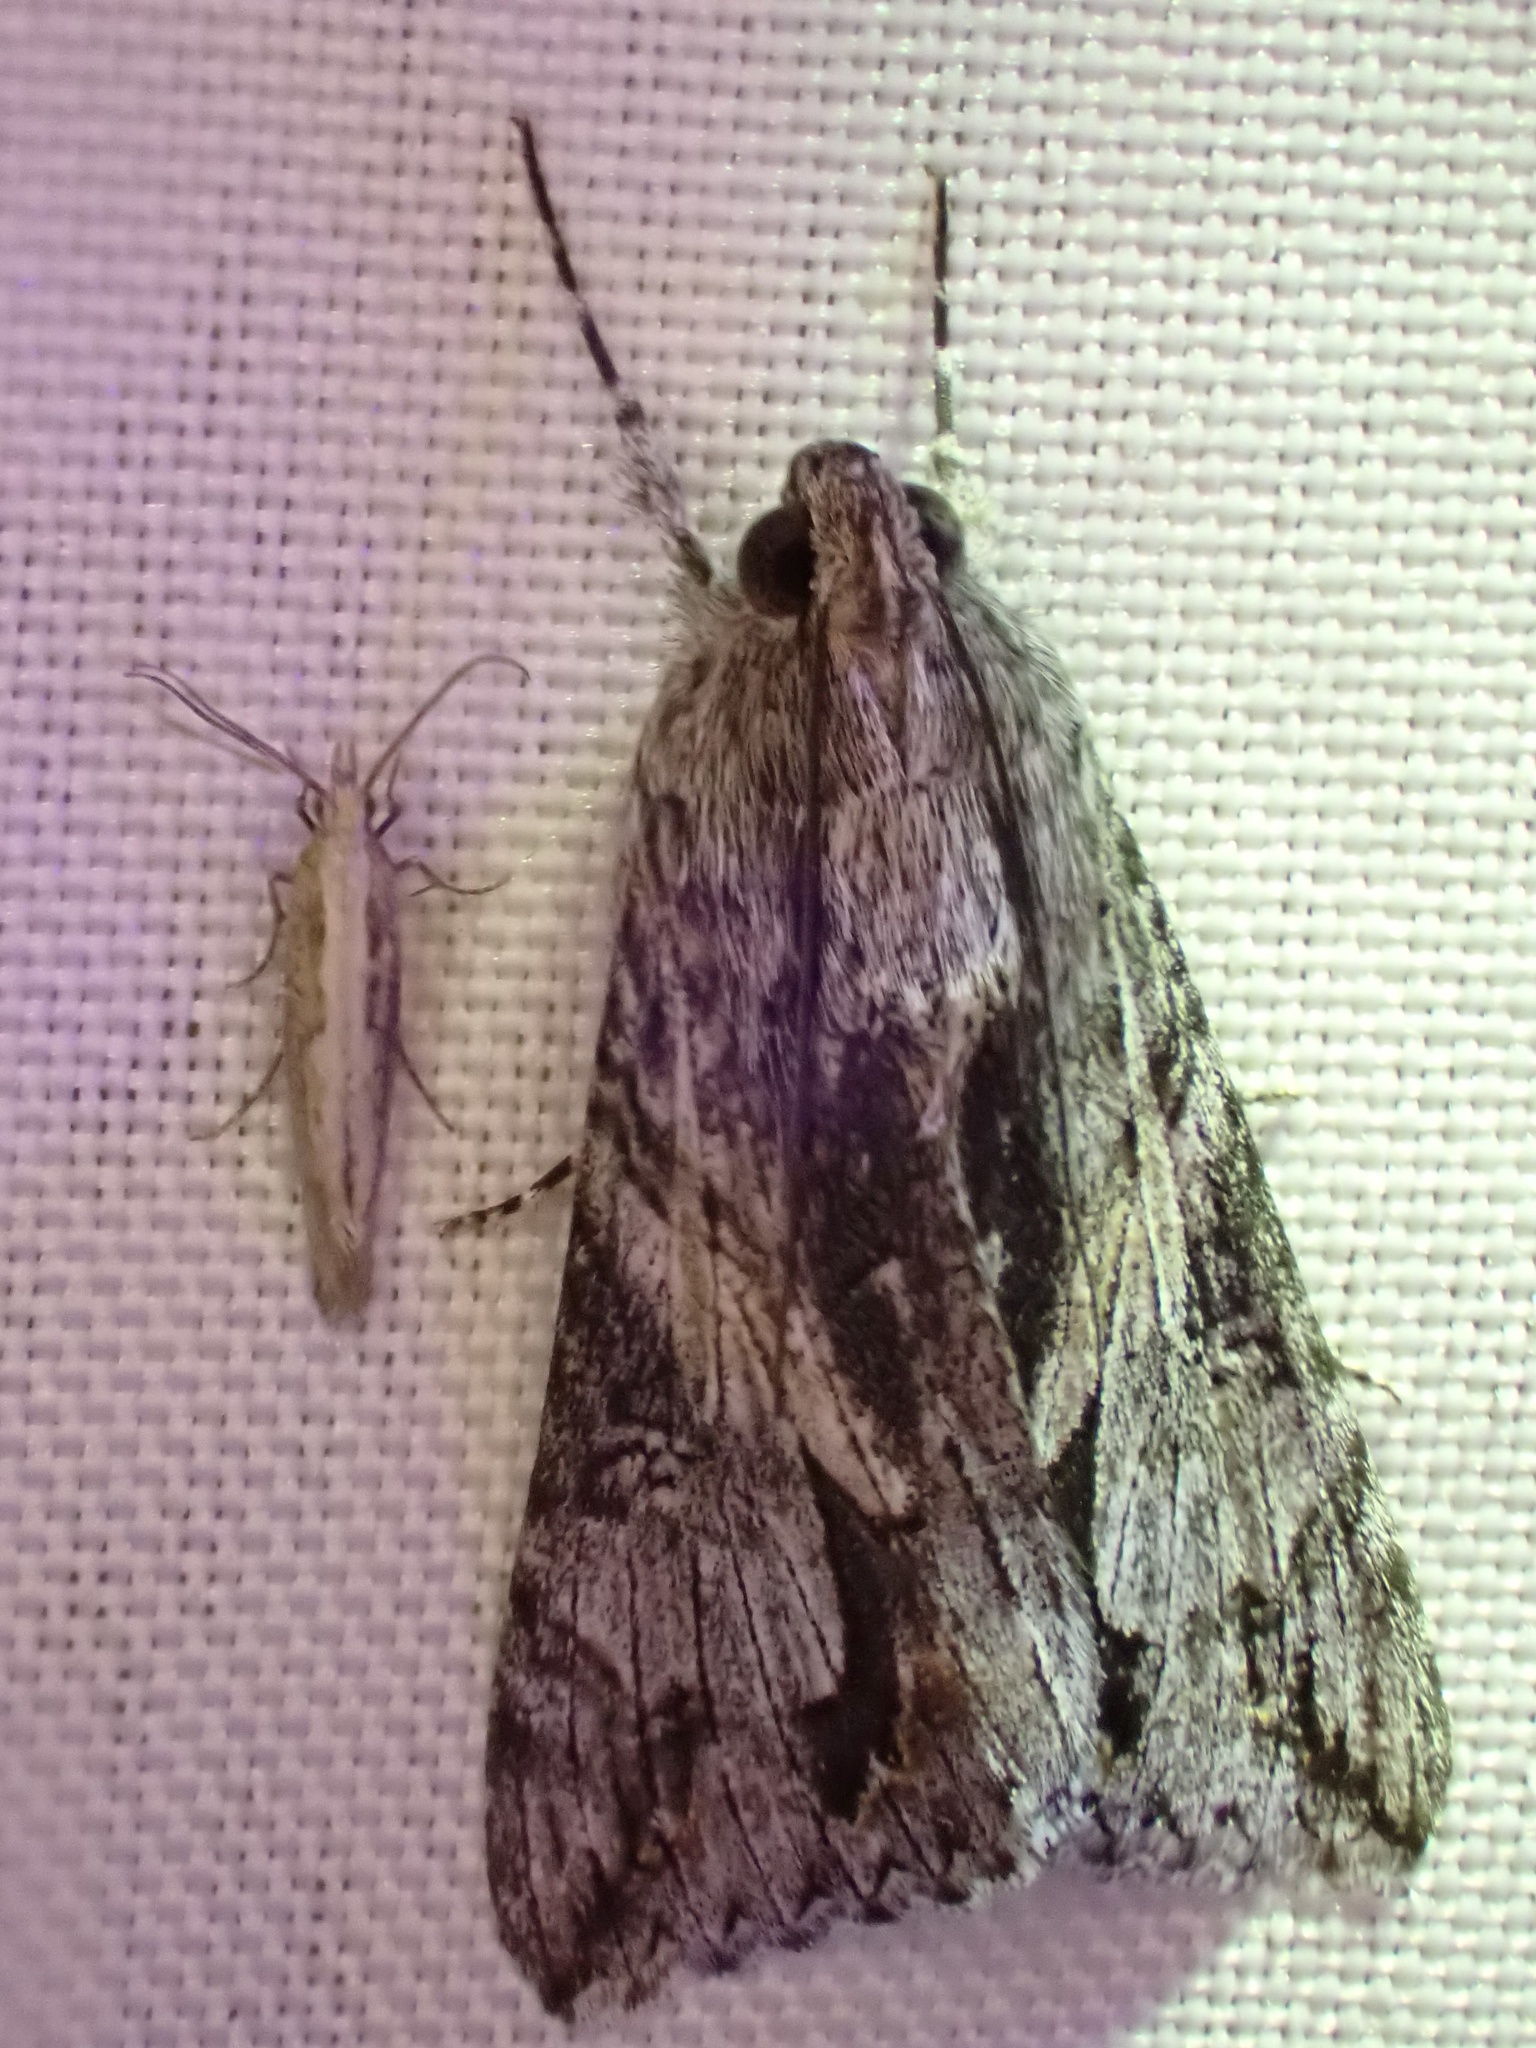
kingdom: Animalia
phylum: Arthropoda
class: Insecta
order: Lepidoptera
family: Erebidae
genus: Melipotis
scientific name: Melipotis jucunda
